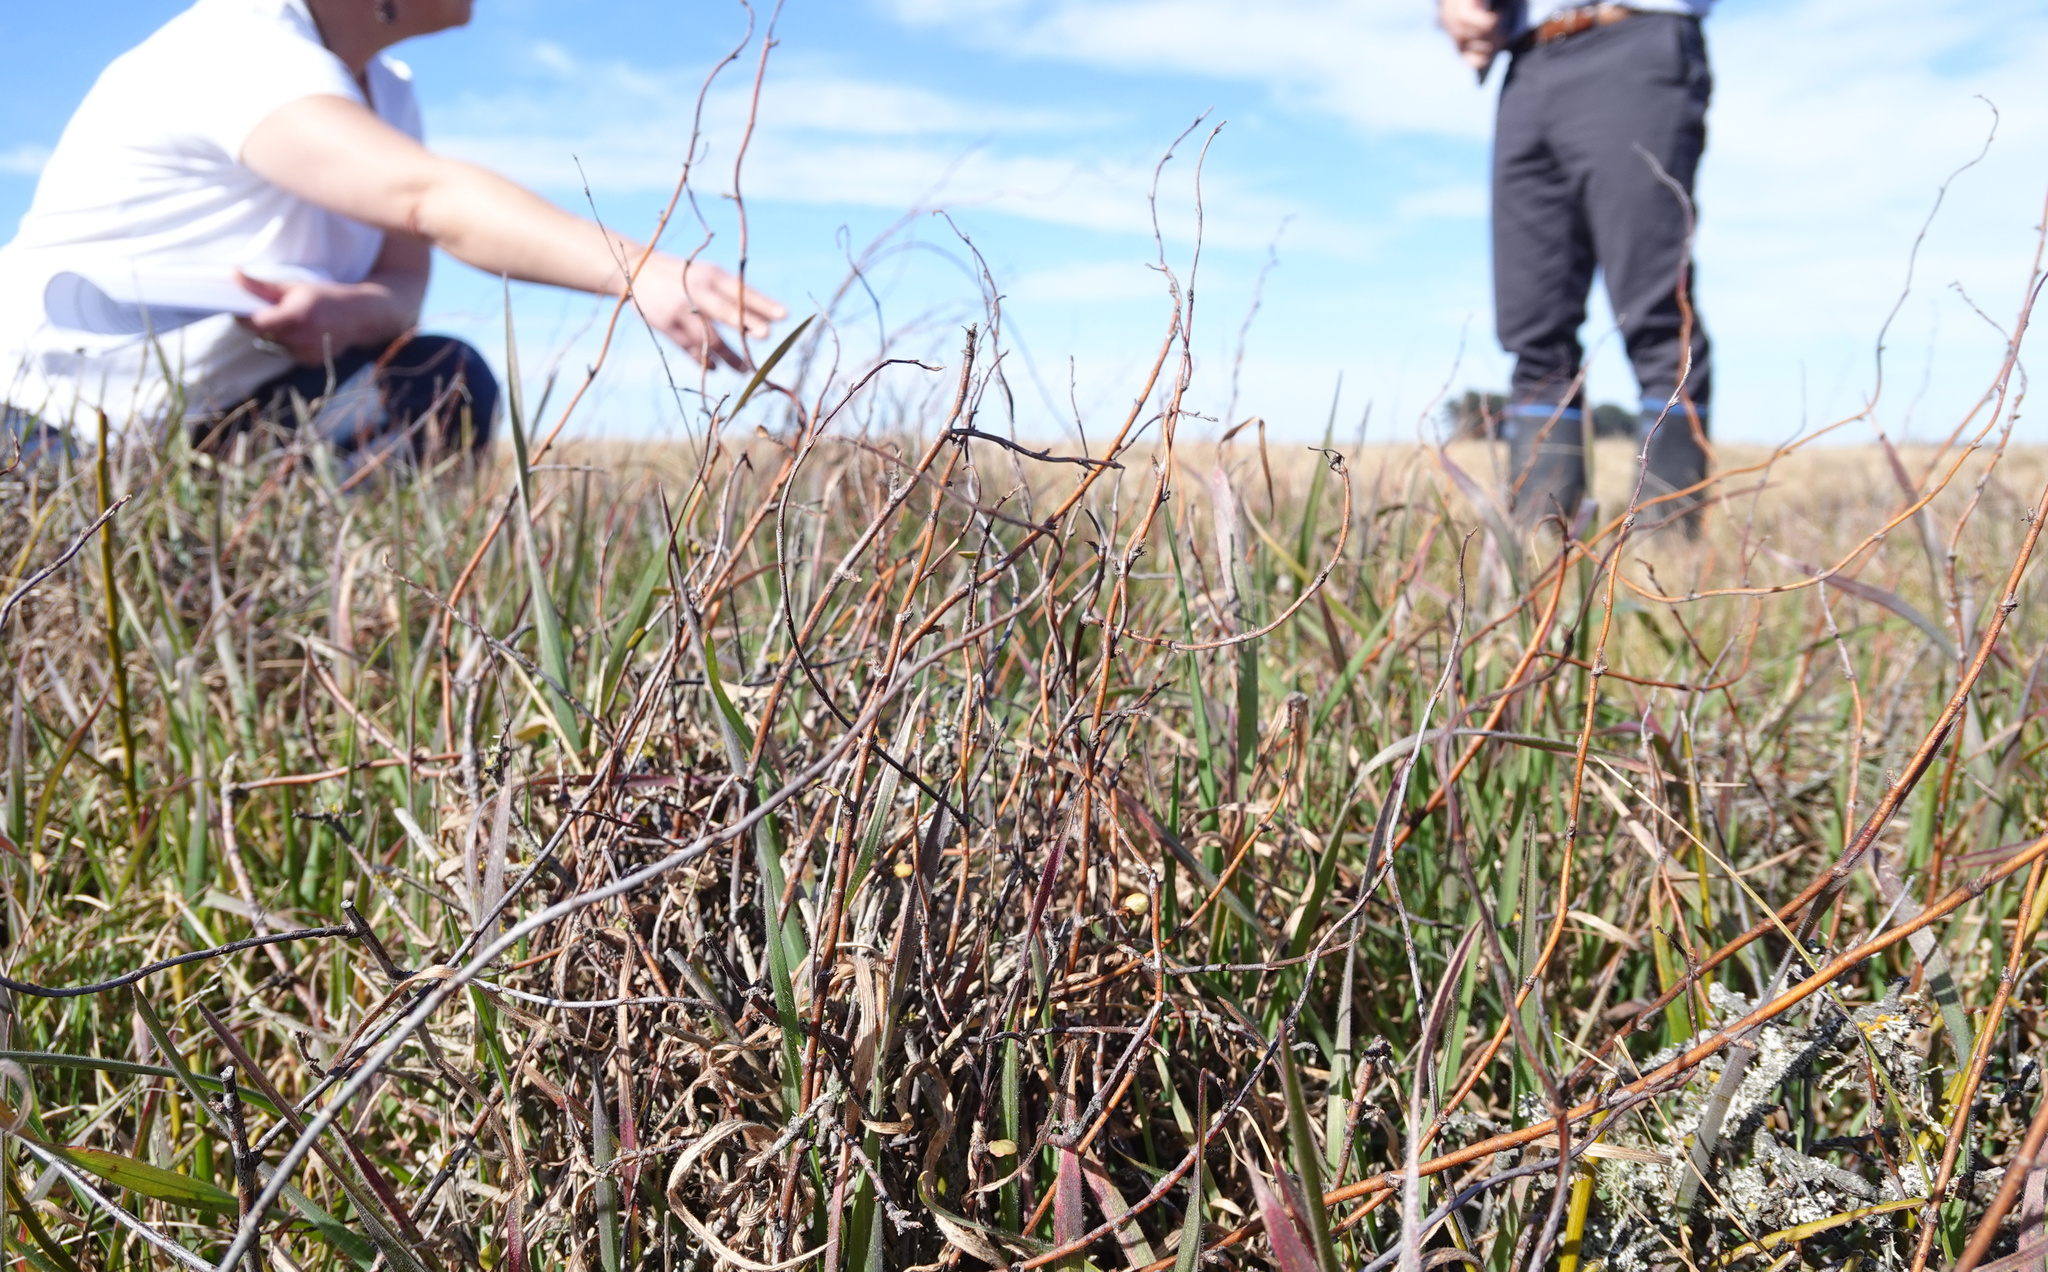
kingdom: Plantae
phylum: Tracheophyta
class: Magnoliopsida
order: Caryophyllales
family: Polygonaceae
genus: Muehlenbeckia
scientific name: Muehlenbeckia complexa
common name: Wireplant
